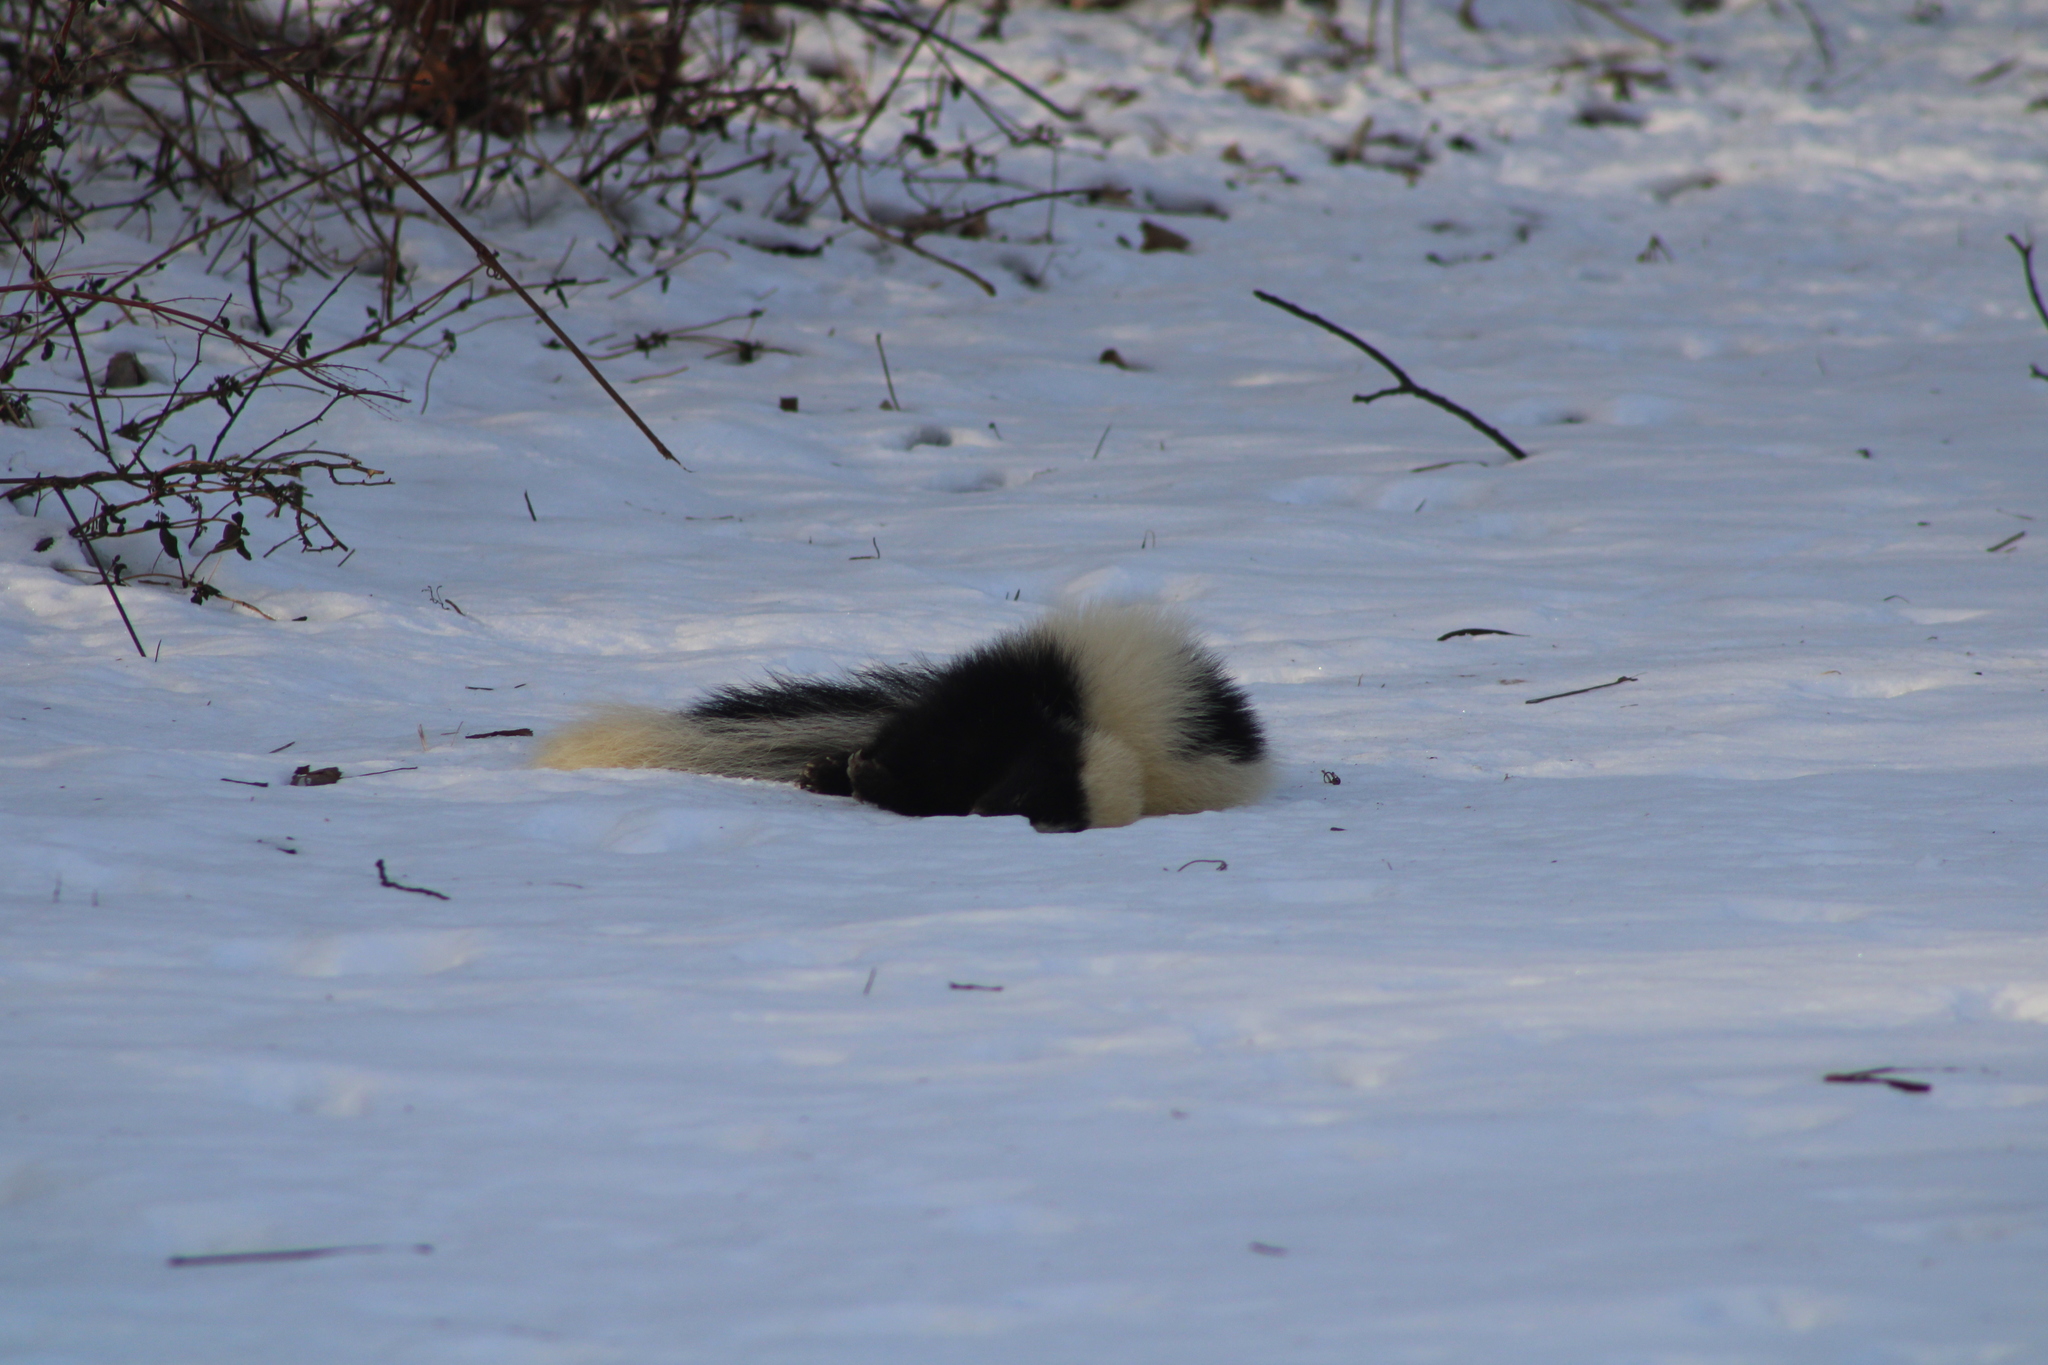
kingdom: Animalia
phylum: Chordata
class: Mammalia
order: Carnivora
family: Mephitidae
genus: Mephitis
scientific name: Mephitis mephitis
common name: Striped skunk
